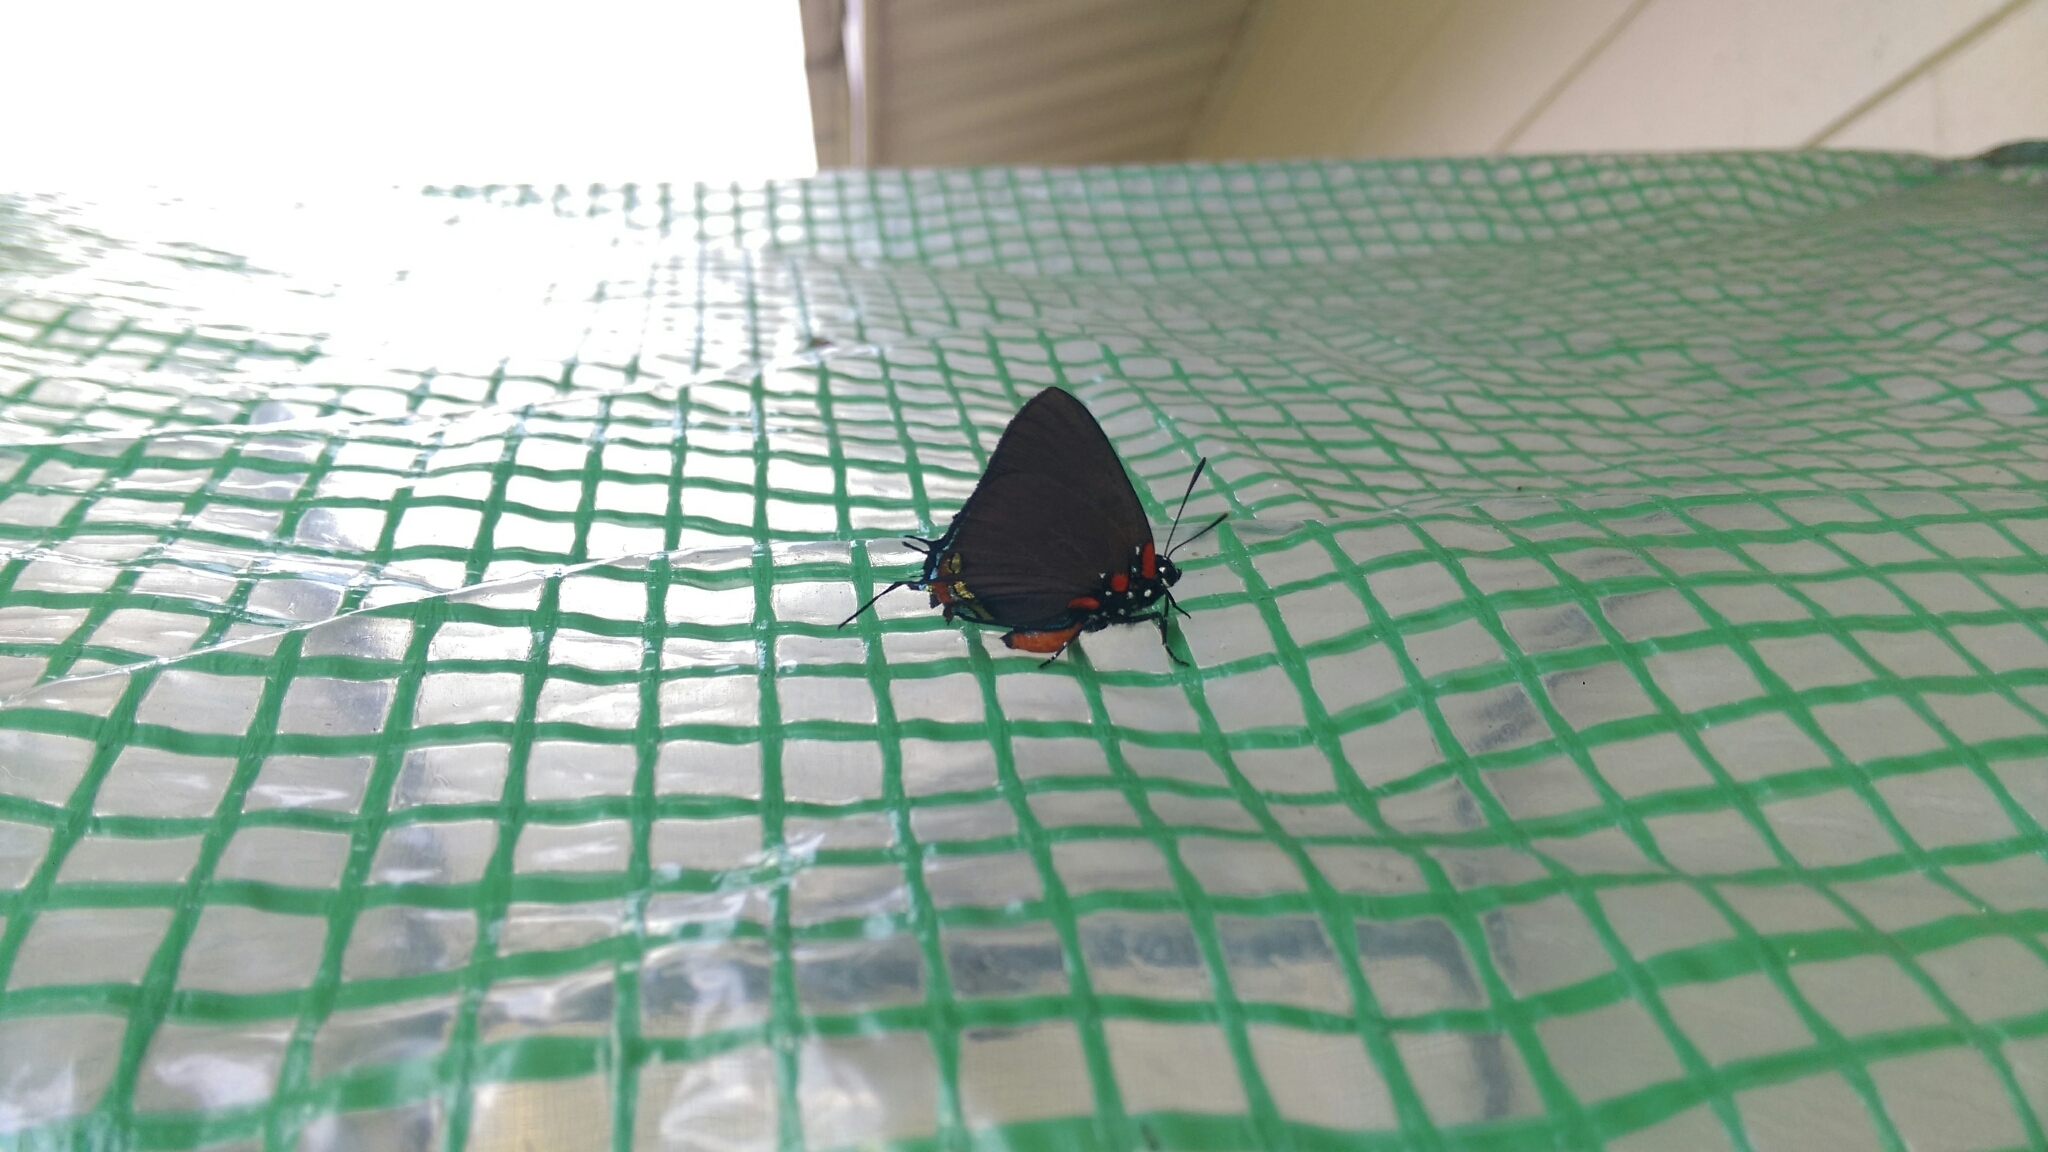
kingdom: Animalia
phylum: Arthropoda
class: Insecta
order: Lepidoptera
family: Lycaenidae
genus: Atlides
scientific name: Atlides halesus
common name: Great purple hairstreak
